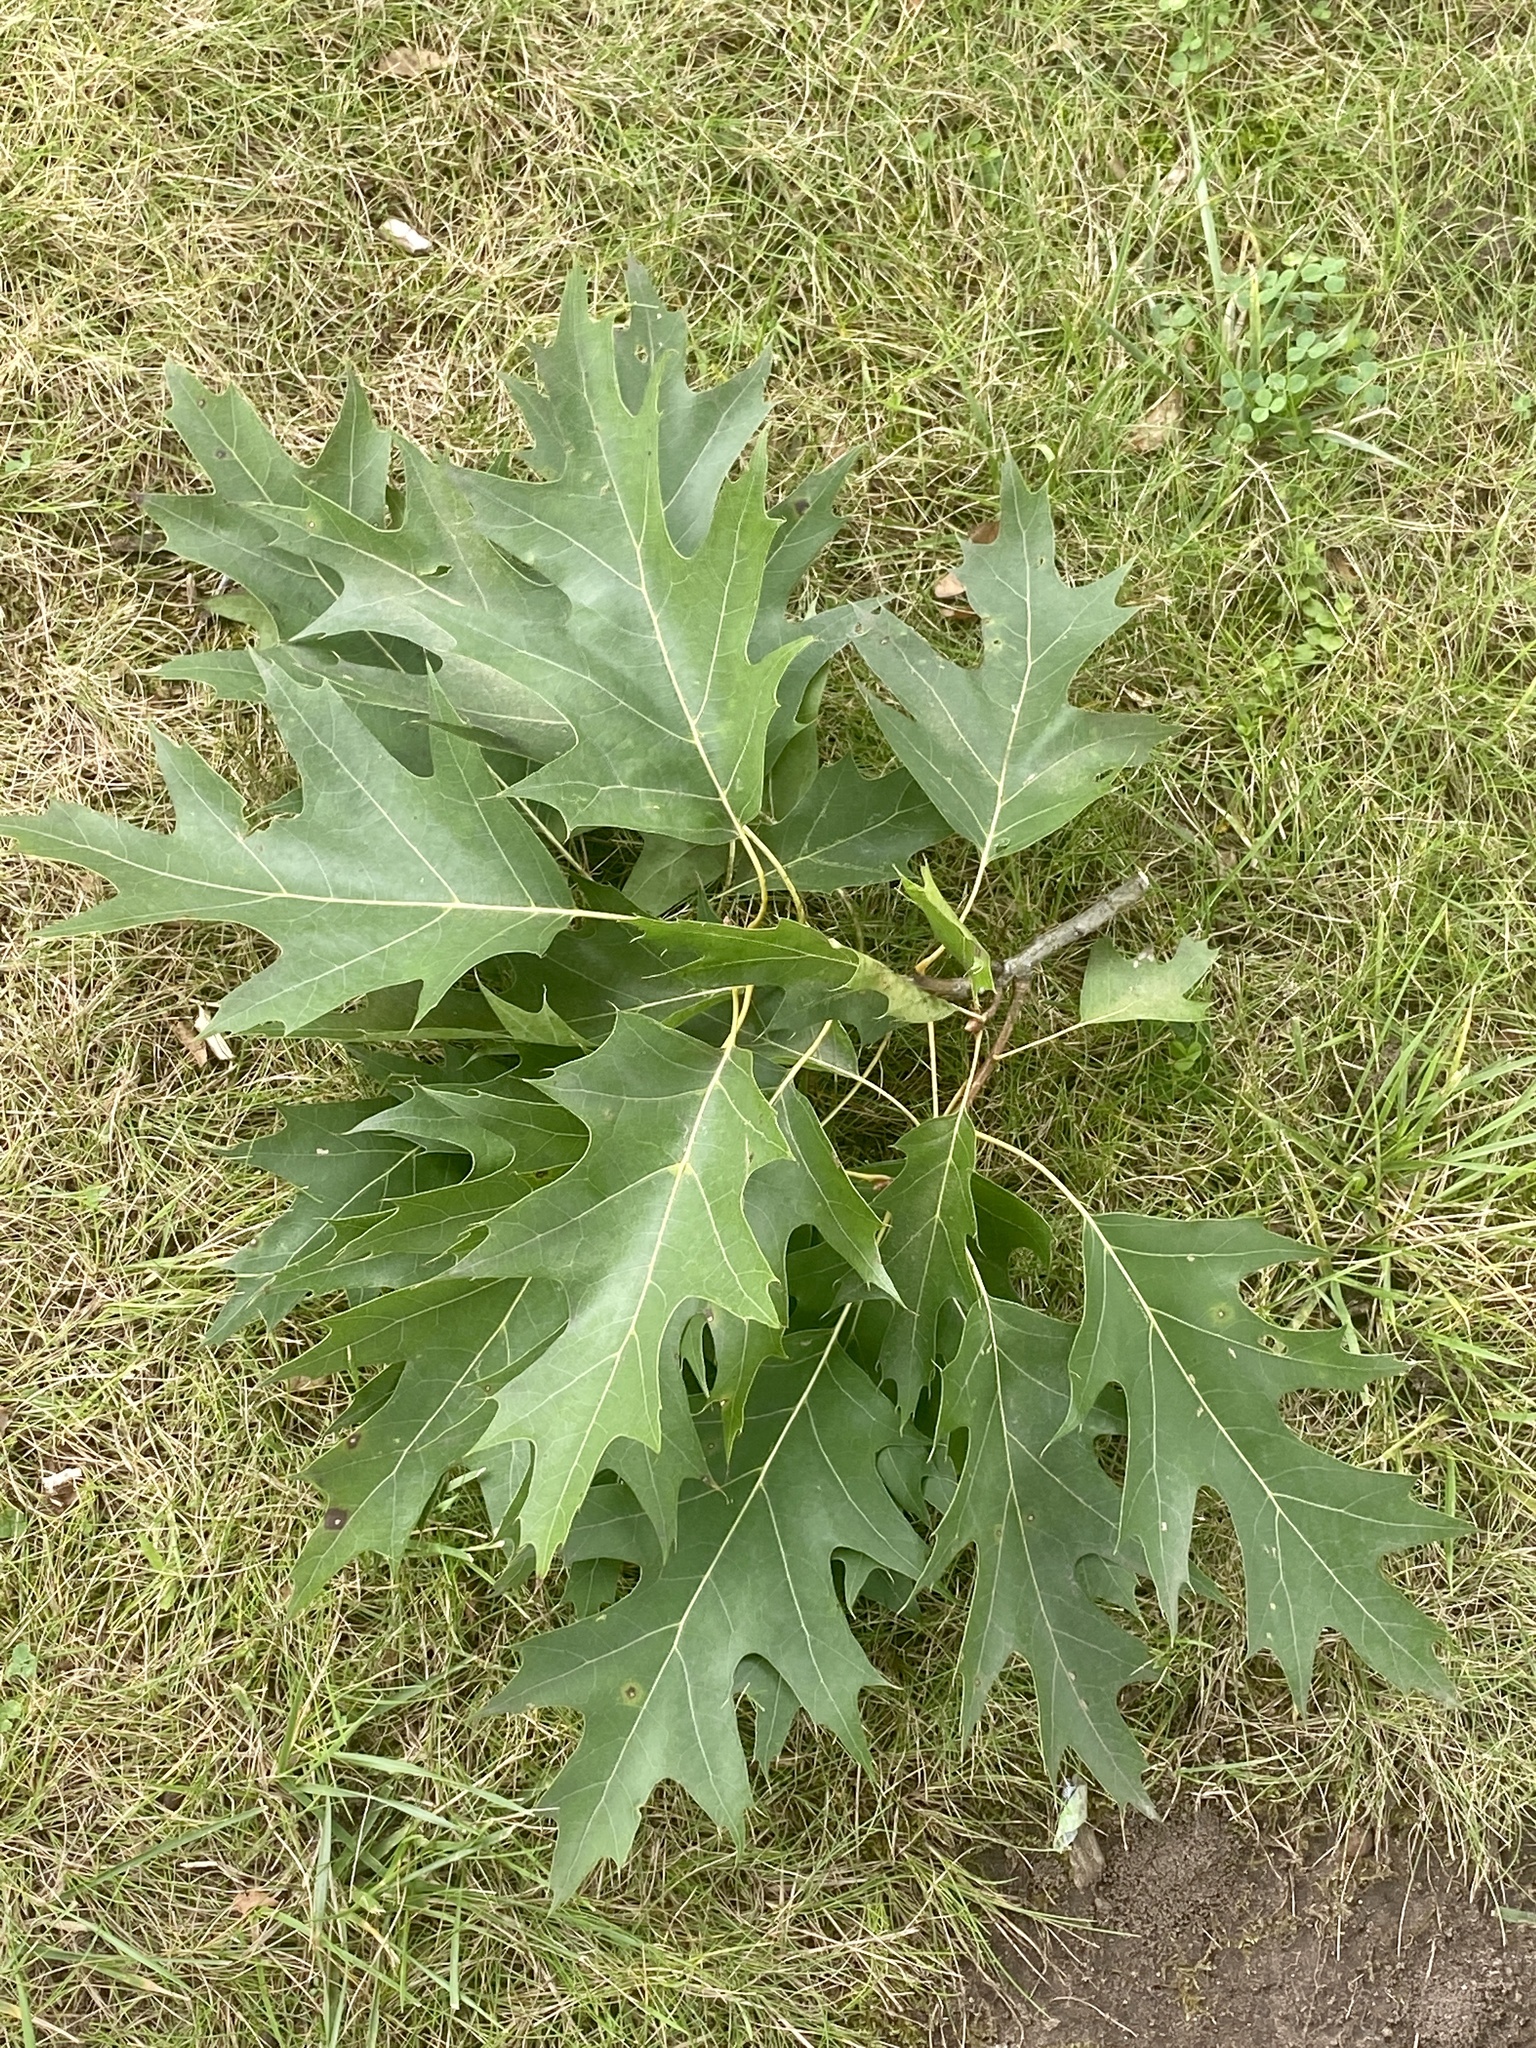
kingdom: Plantae
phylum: Tracheophyta
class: Magnoliopsida
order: Fagales
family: Fagaceae
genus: Quercus
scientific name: Quercus rubra
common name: Red oak
